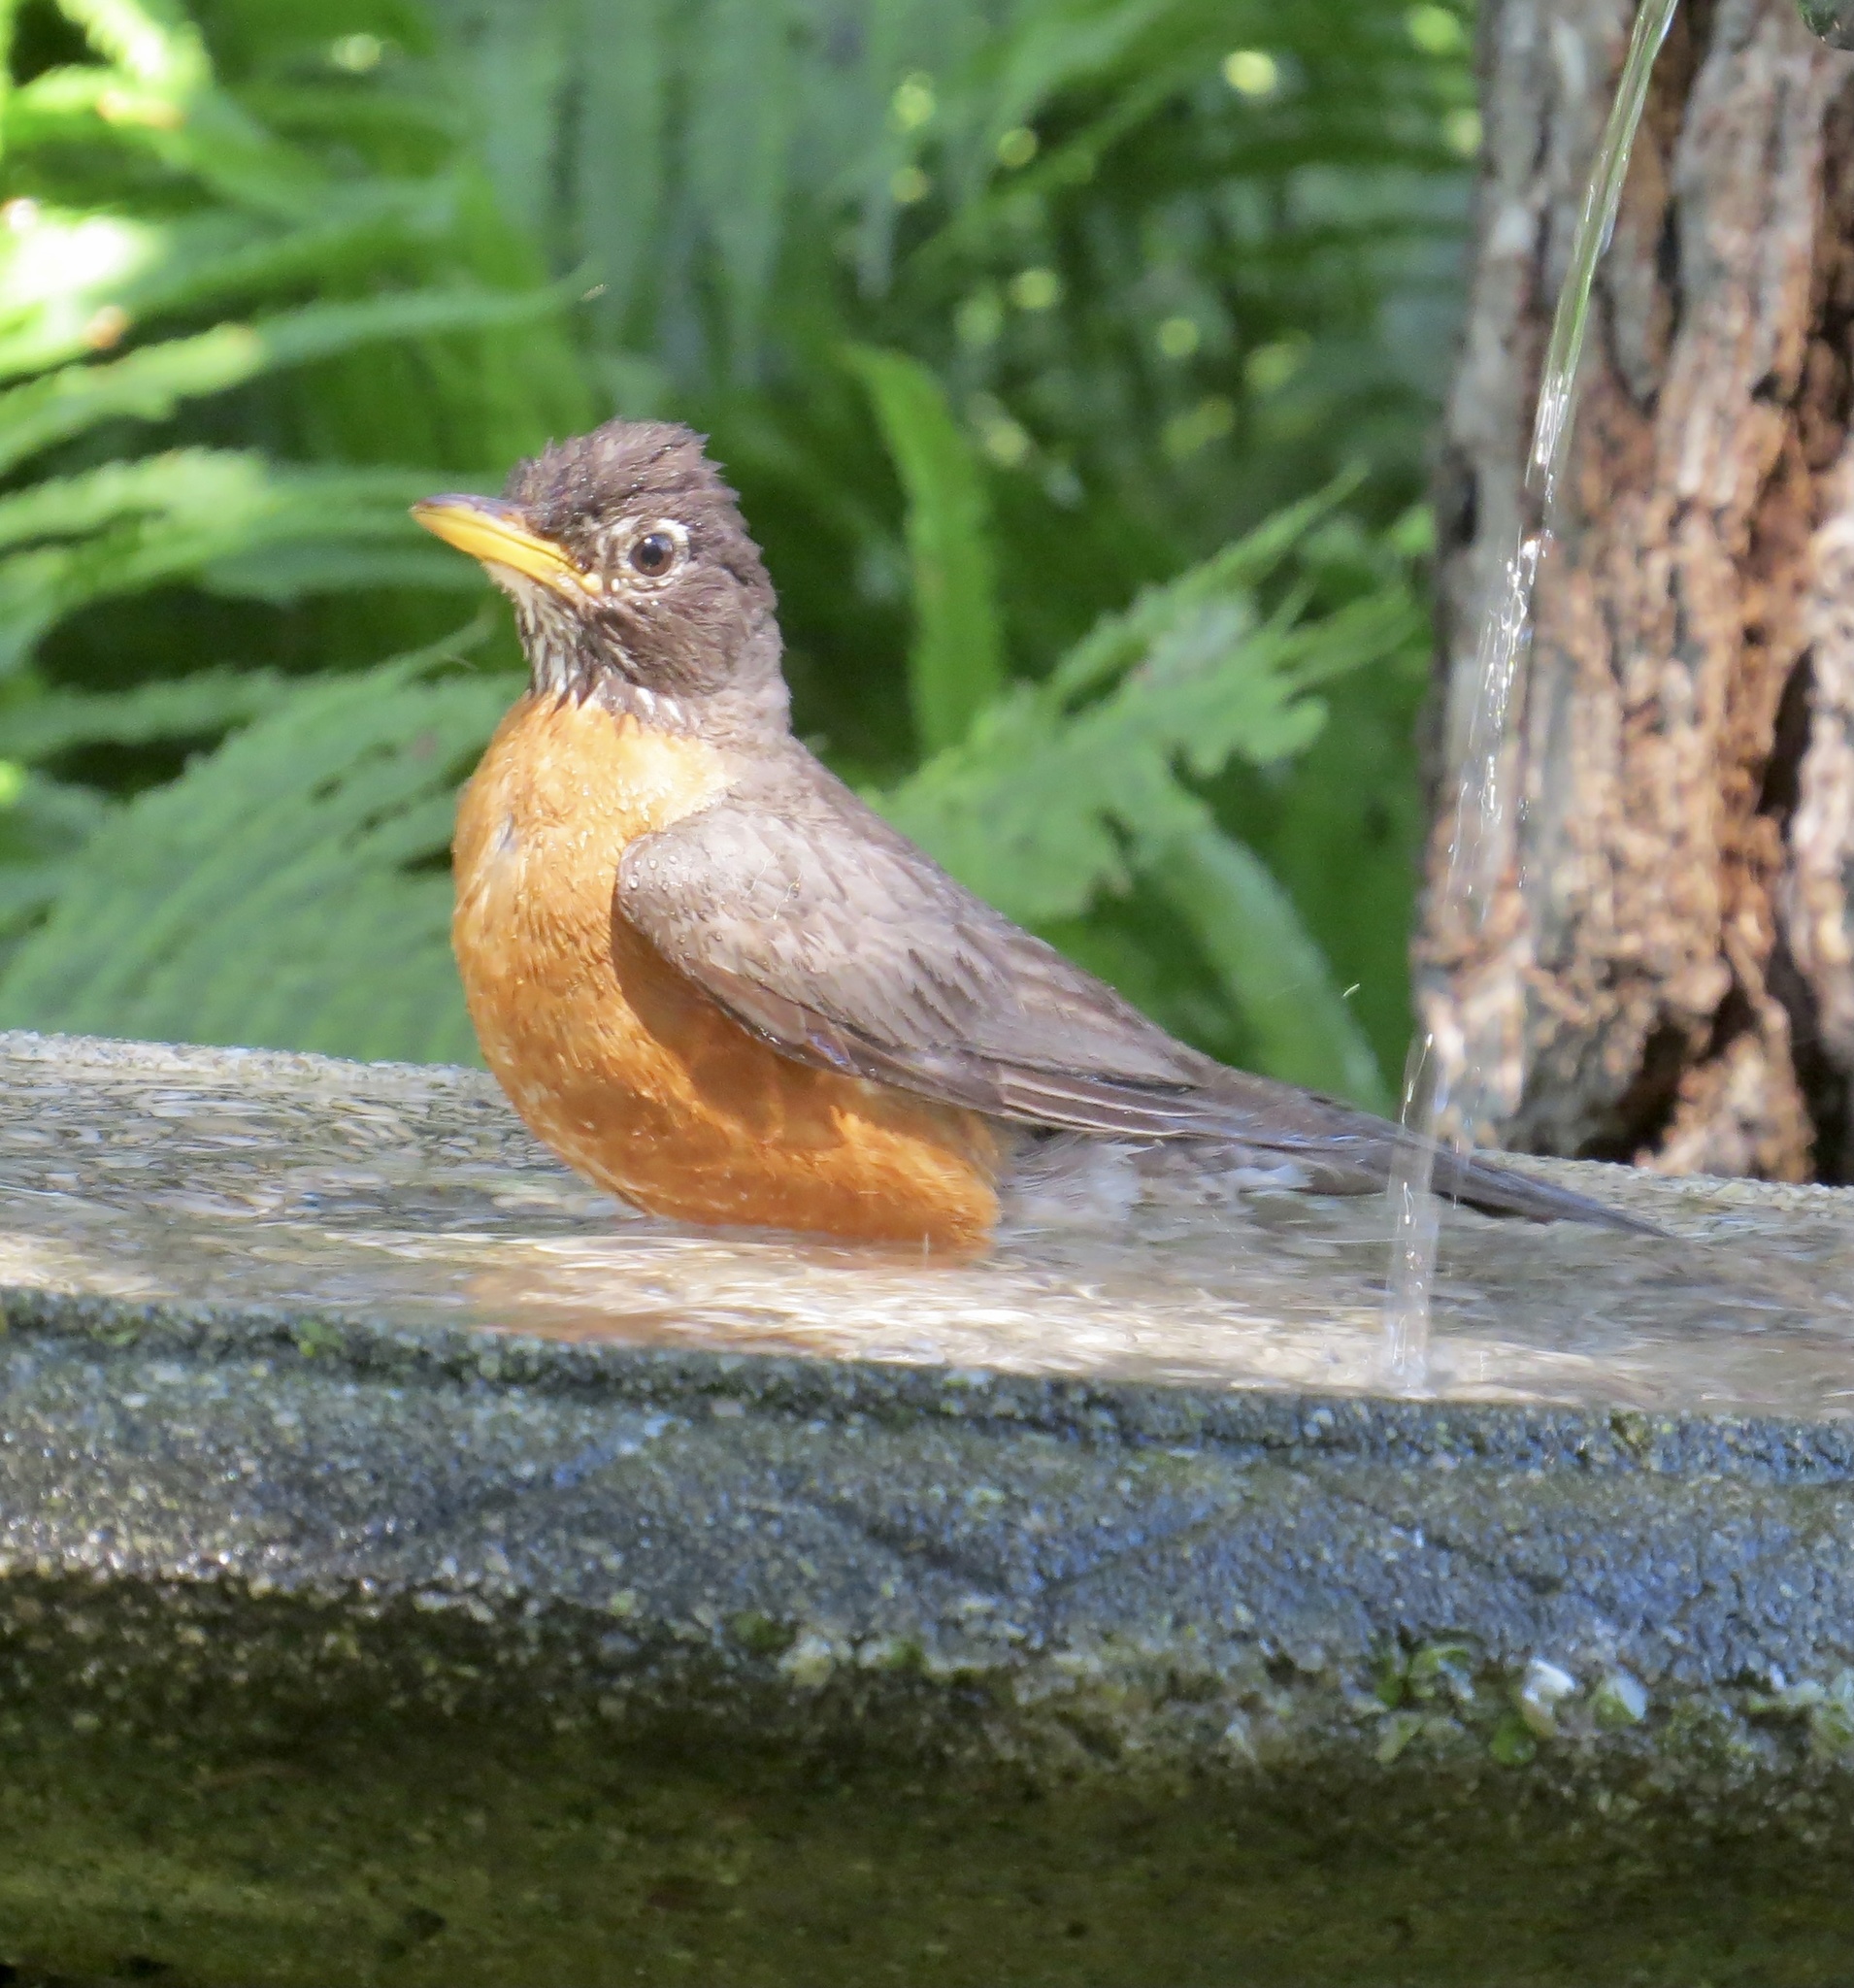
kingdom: Animalia
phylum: Chordata
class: Aves
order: Passeriformes
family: Turdidae
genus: Turdus
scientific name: Turdus migratorius
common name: American robin
